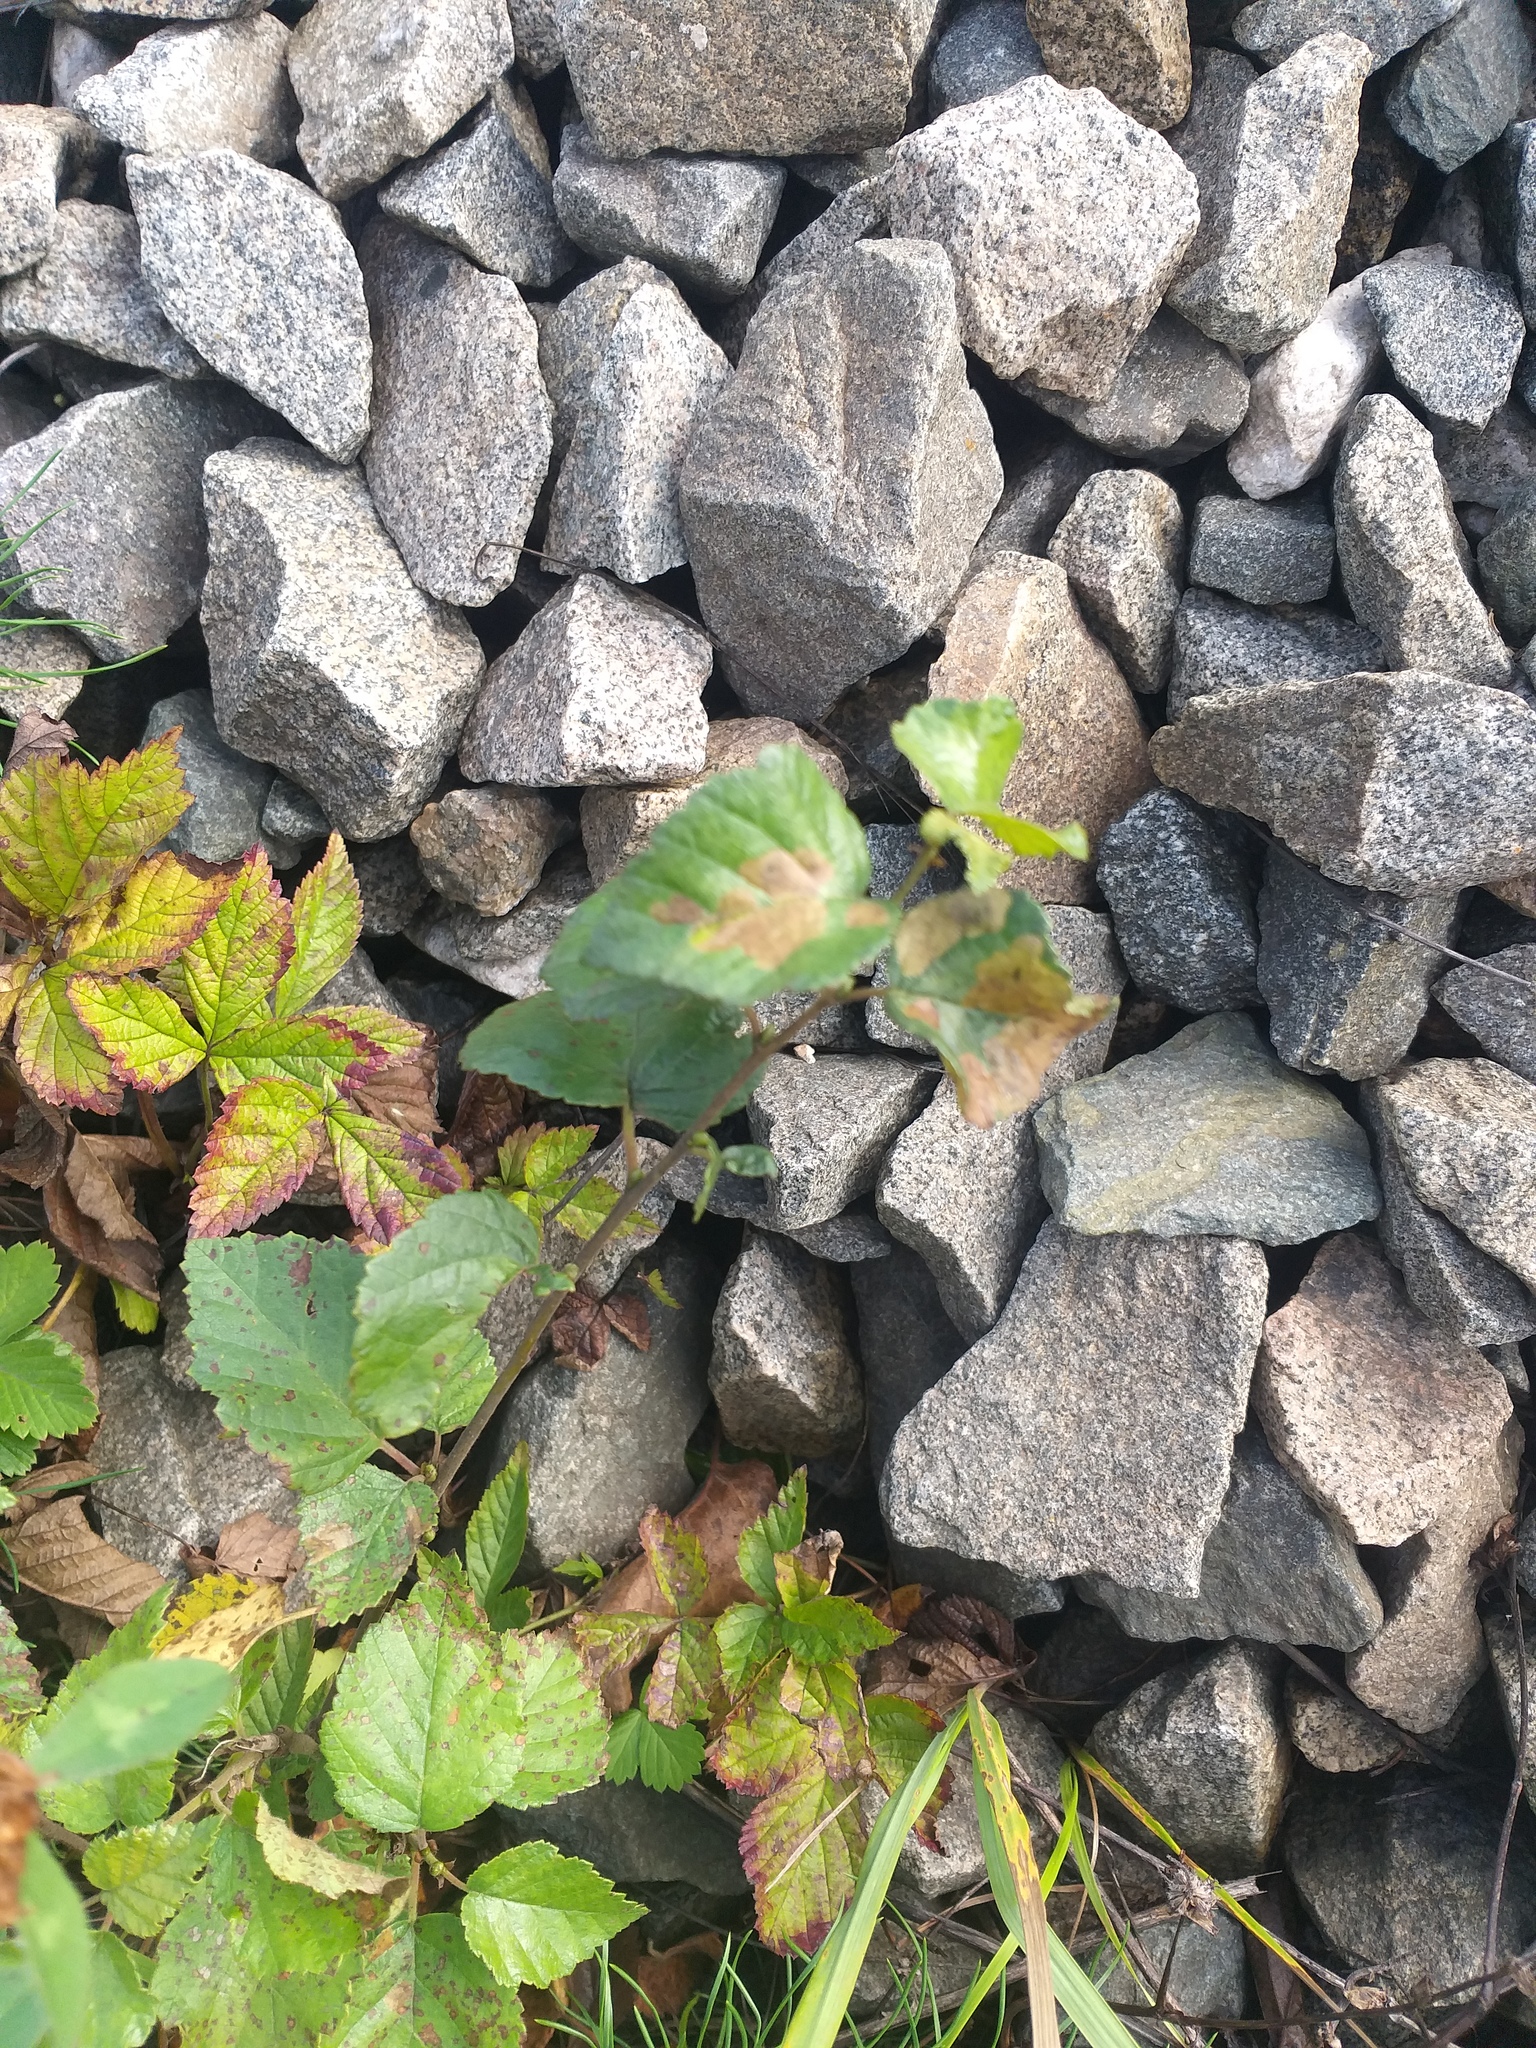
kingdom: Plantae
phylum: Tracheophyta
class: Magnoliopsida
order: Fagales
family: Betulaceae
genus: Betula
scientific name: Betula pubescens
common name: Downy birch
